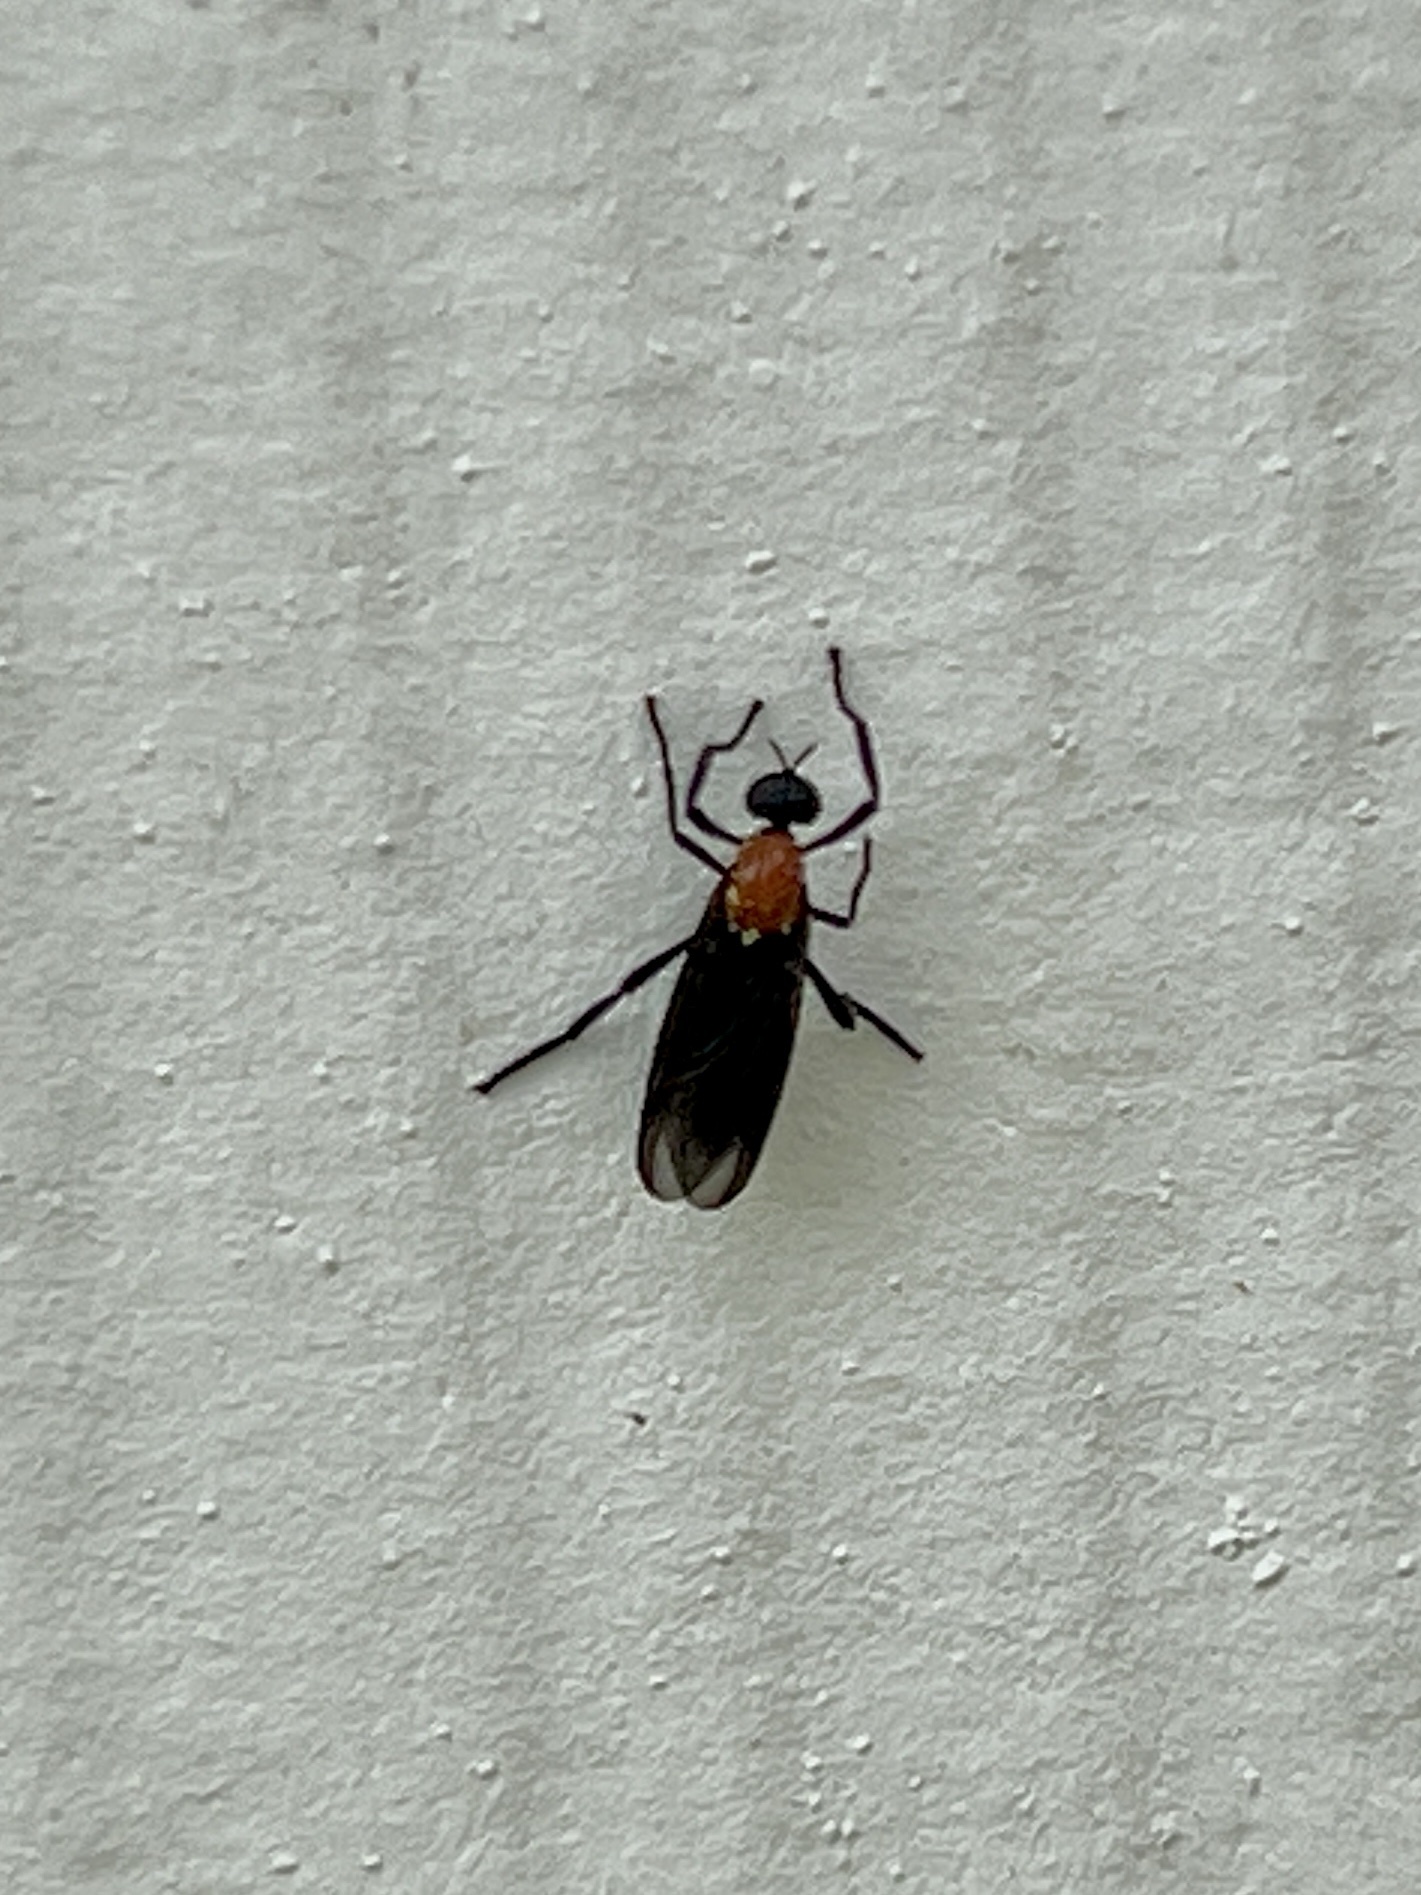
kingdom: Animalia
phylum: Arthropoda
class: Insecta
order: Diptera
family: Bibionidae
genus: Plecia
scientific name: Plecia nearctica
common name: March fly
